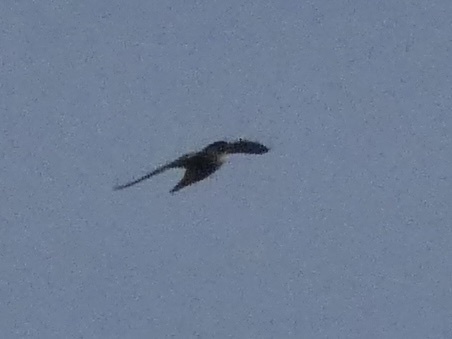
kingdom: Animalia
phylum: Chordata
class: Aves
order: Falconiformes
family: Falconidae
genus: Falco
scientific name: Falco peregrinus
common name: Peregrine falcon
